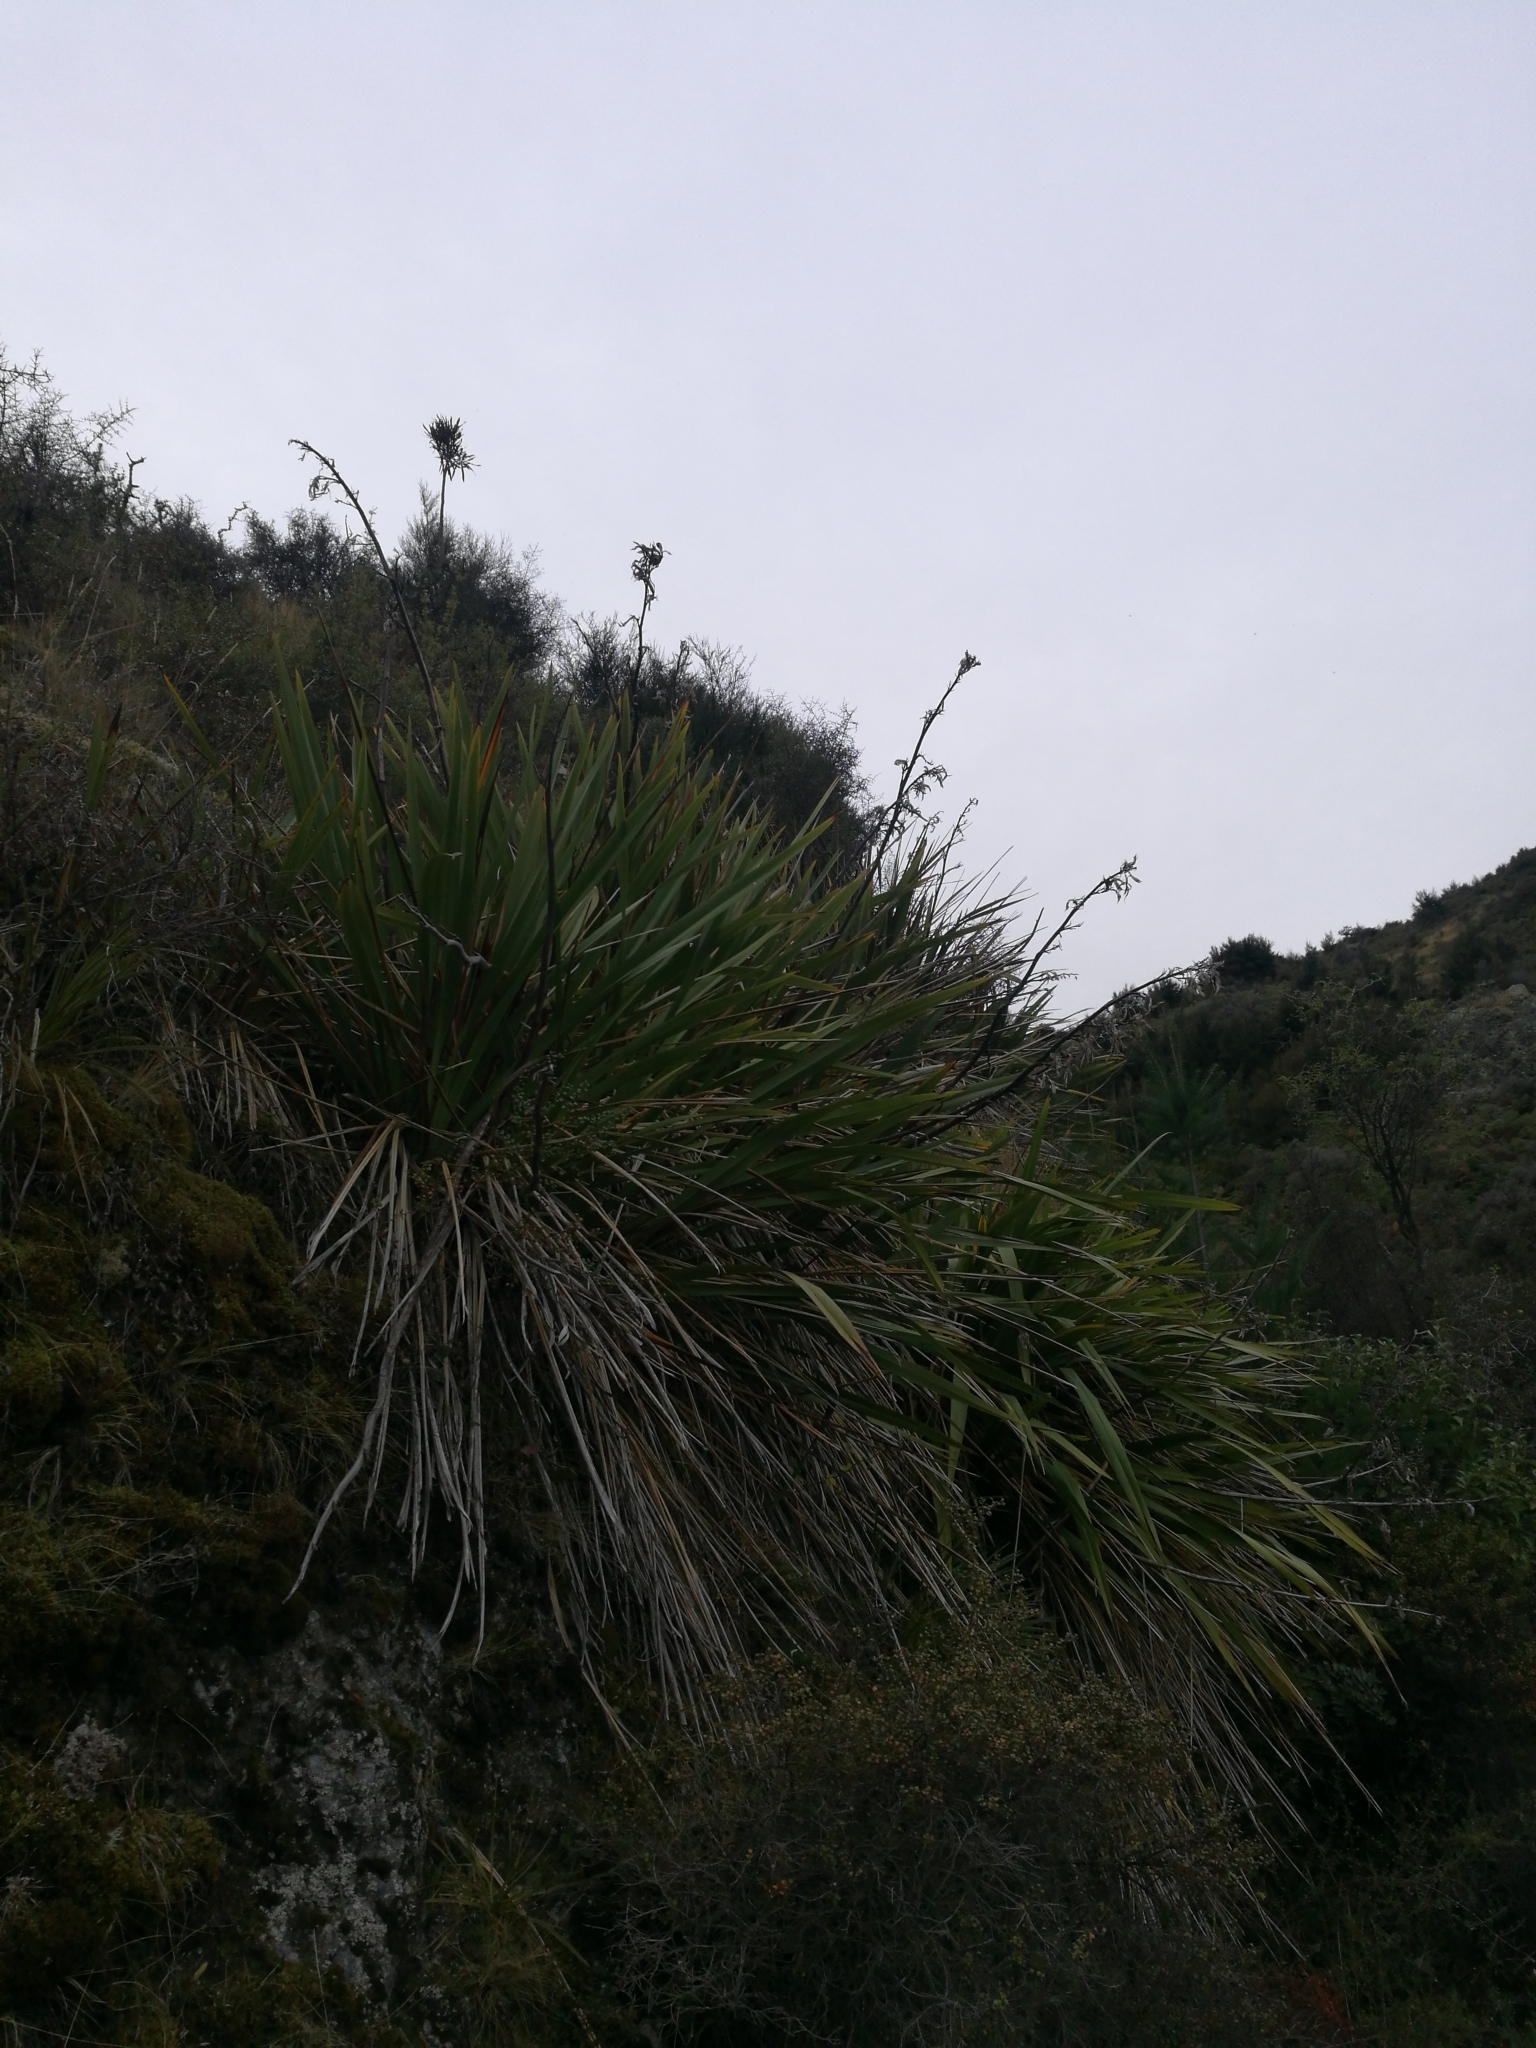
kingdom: Plantae
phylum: Tracheophyta
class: Liliopsida
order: Asparagales
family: Asphodelaceae
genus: Phormium
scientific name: Phormium colensoi
